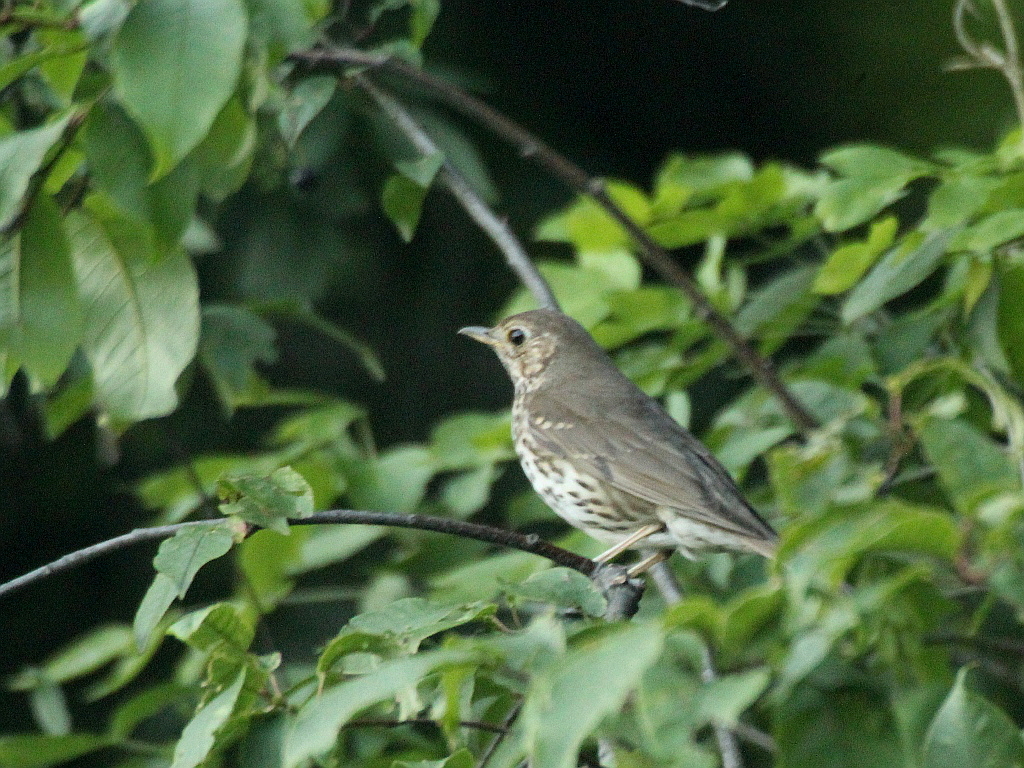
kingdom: Animalia
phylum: Chordata
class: Aves
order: Passeriformes
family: Turdidae
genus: Turdus
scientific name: Turdus philomelos
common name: Song thrush
